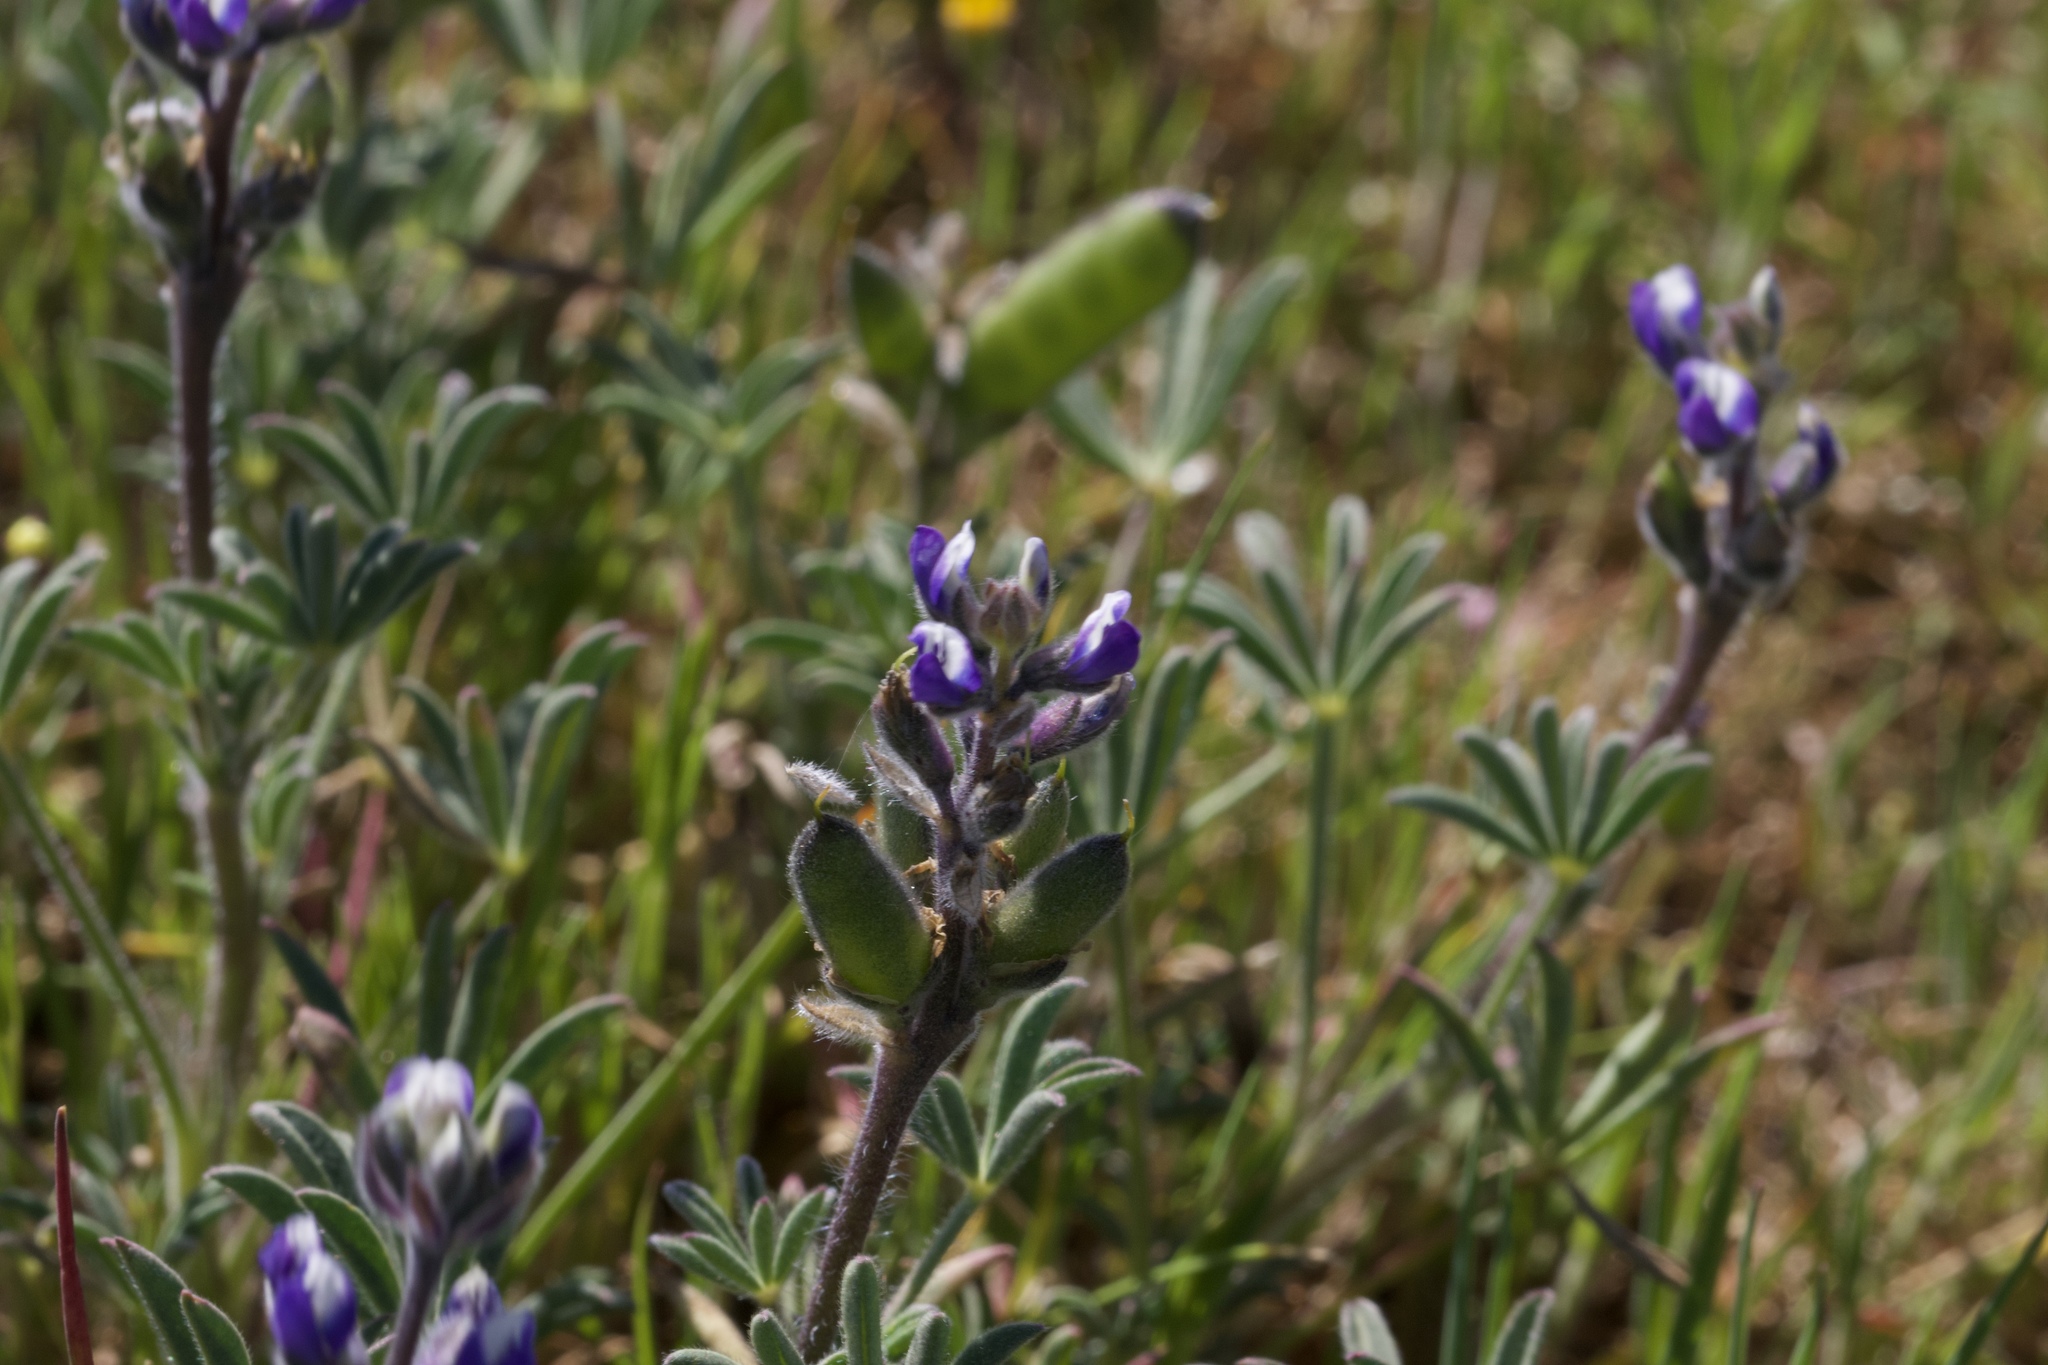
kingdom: Plantae
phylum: Tracheophyta
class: Magnoliopsida
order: Fabales
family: Fabaceae
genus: Lupinus
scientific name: Lupinus bicolor
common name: Miniature lupine
